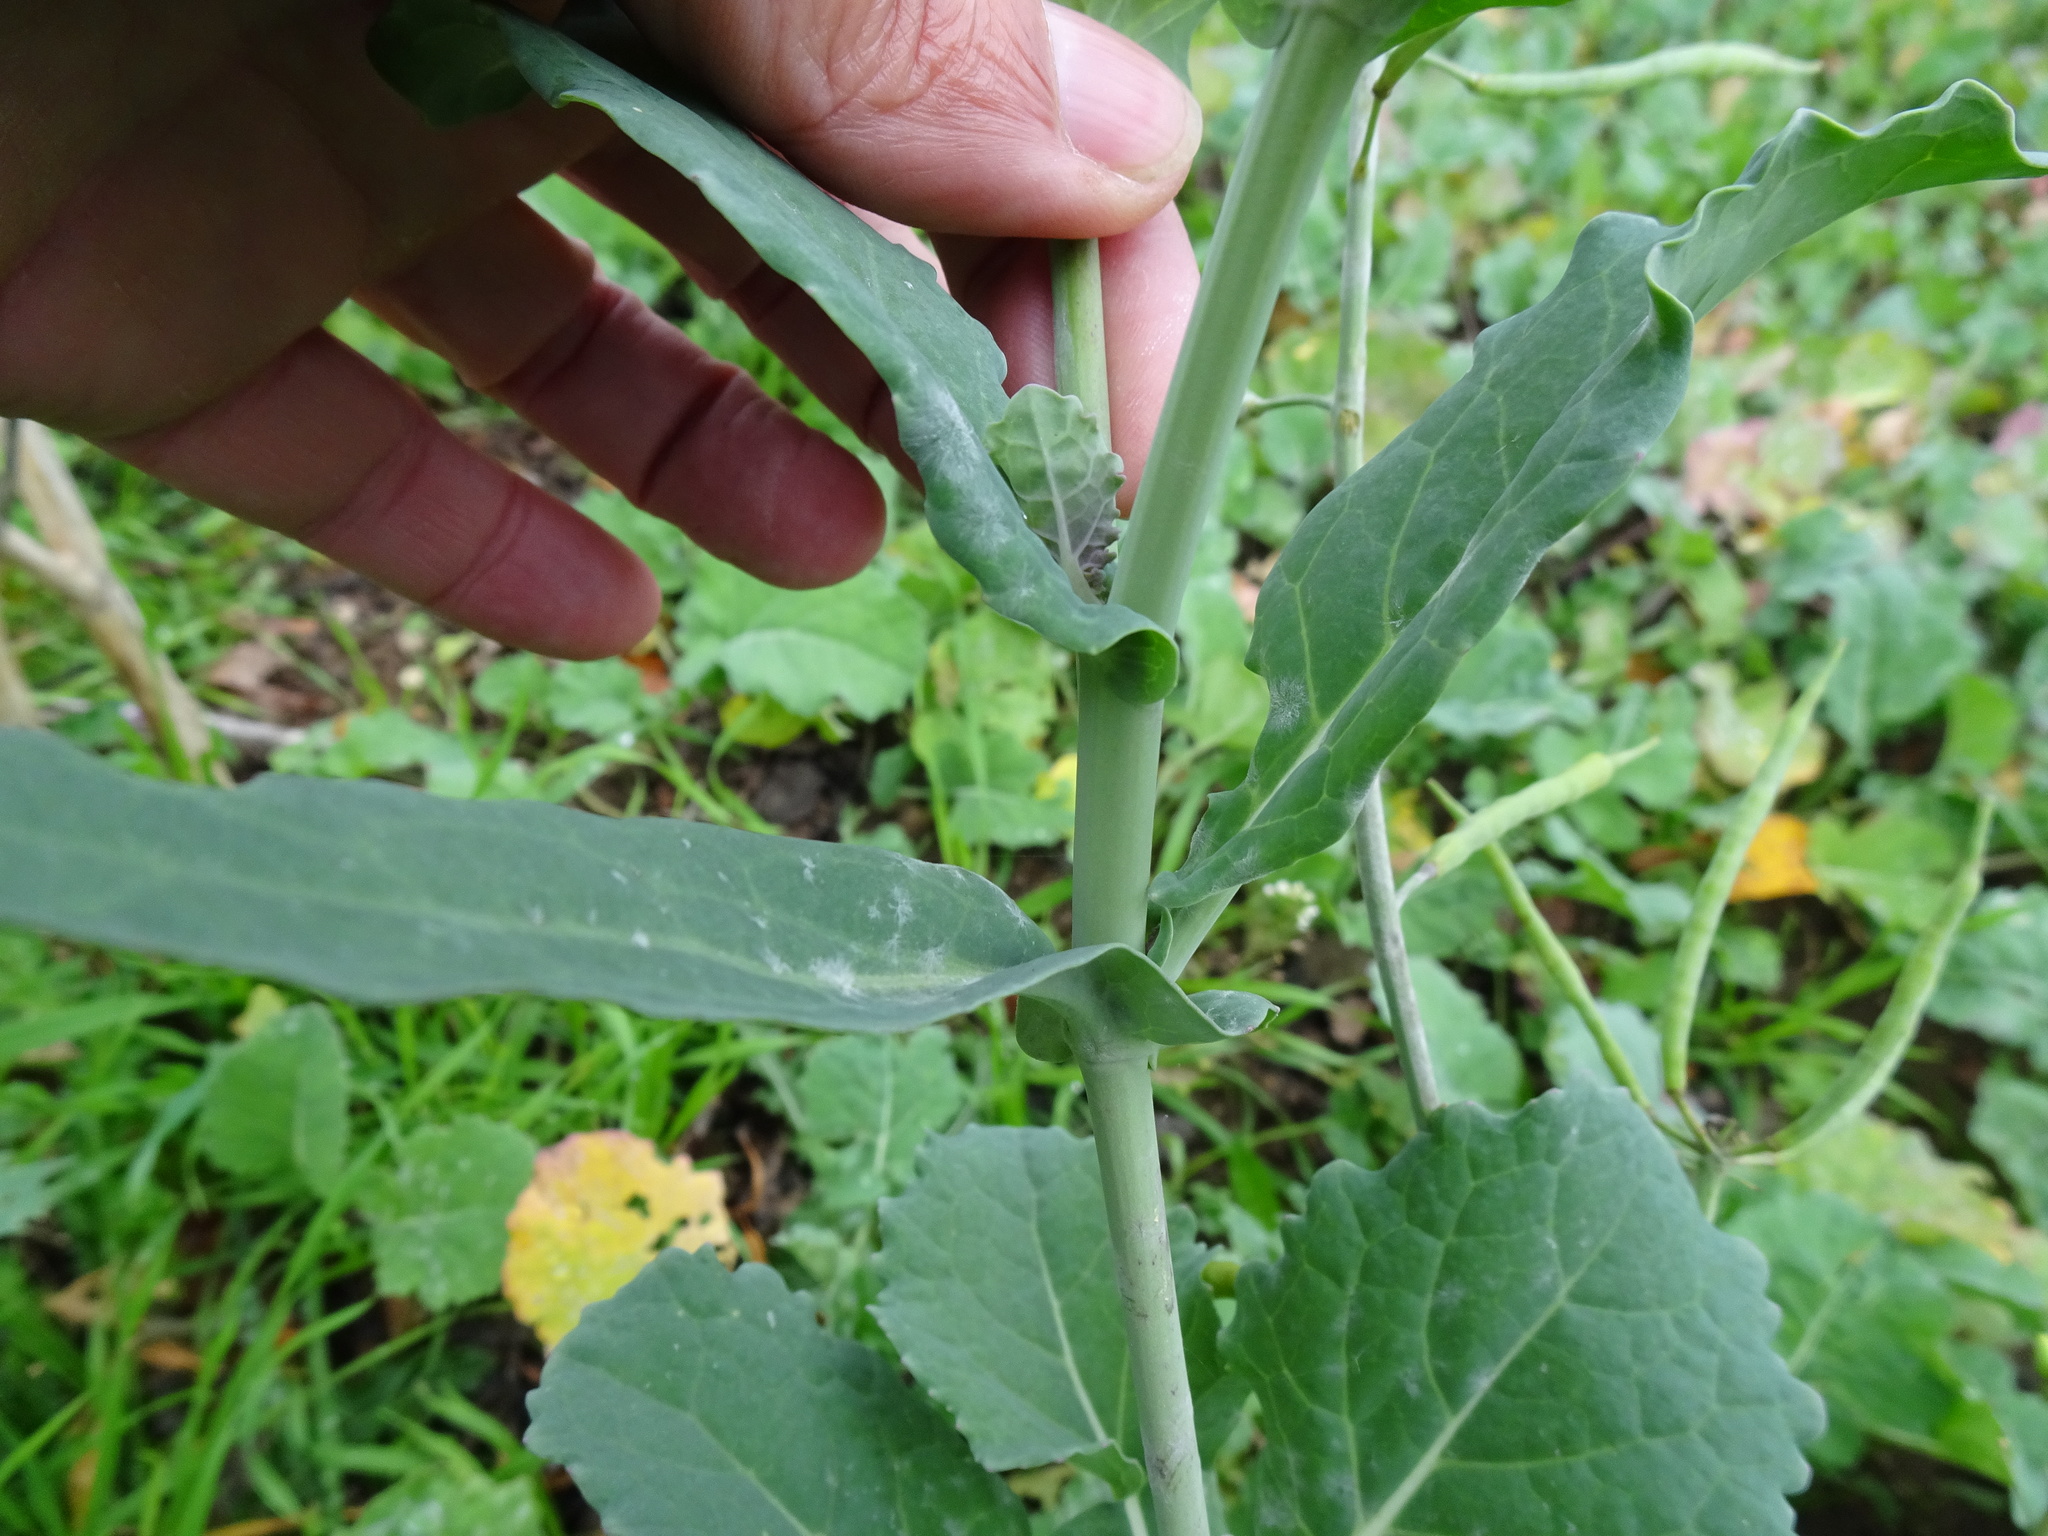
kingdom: Plantae
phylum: Tracheophyta
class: Magnoliopsida
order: Brassicales
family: Brassicaceae
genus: Brassica
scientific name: Brassica napus
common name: Rape
